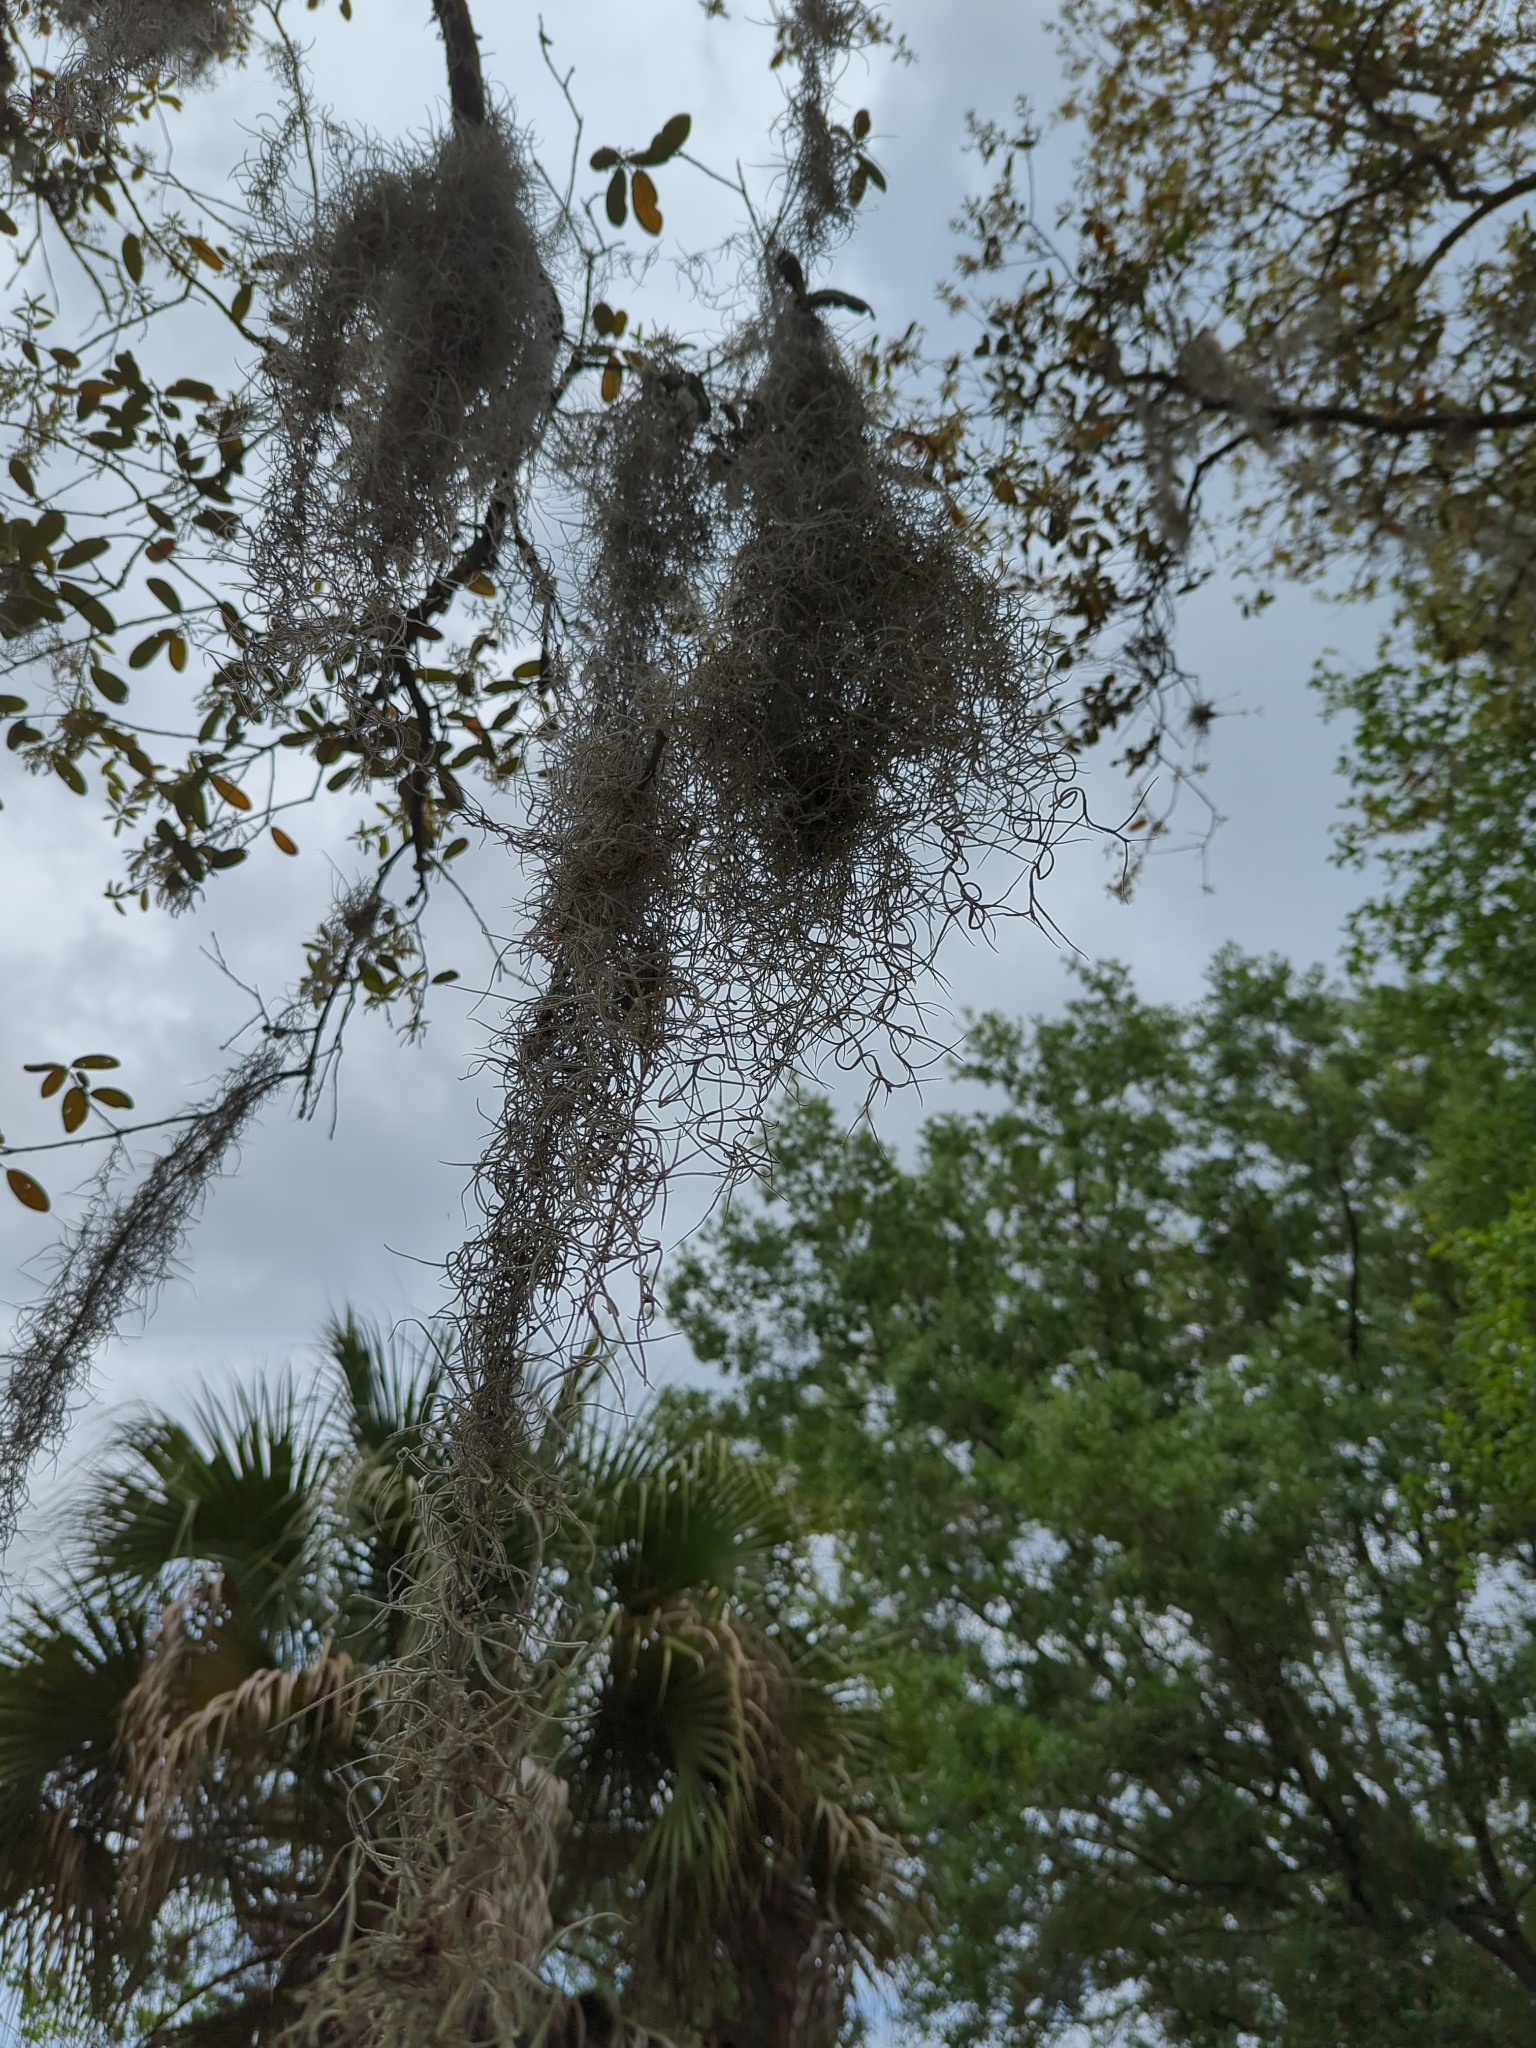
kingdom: Plantae
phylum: Tracheophyta
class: Liliopsida
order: Poales
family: Bromeliaceae
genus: Tillandsia
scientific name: Tillandsia usneoides
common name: Spanish moss
